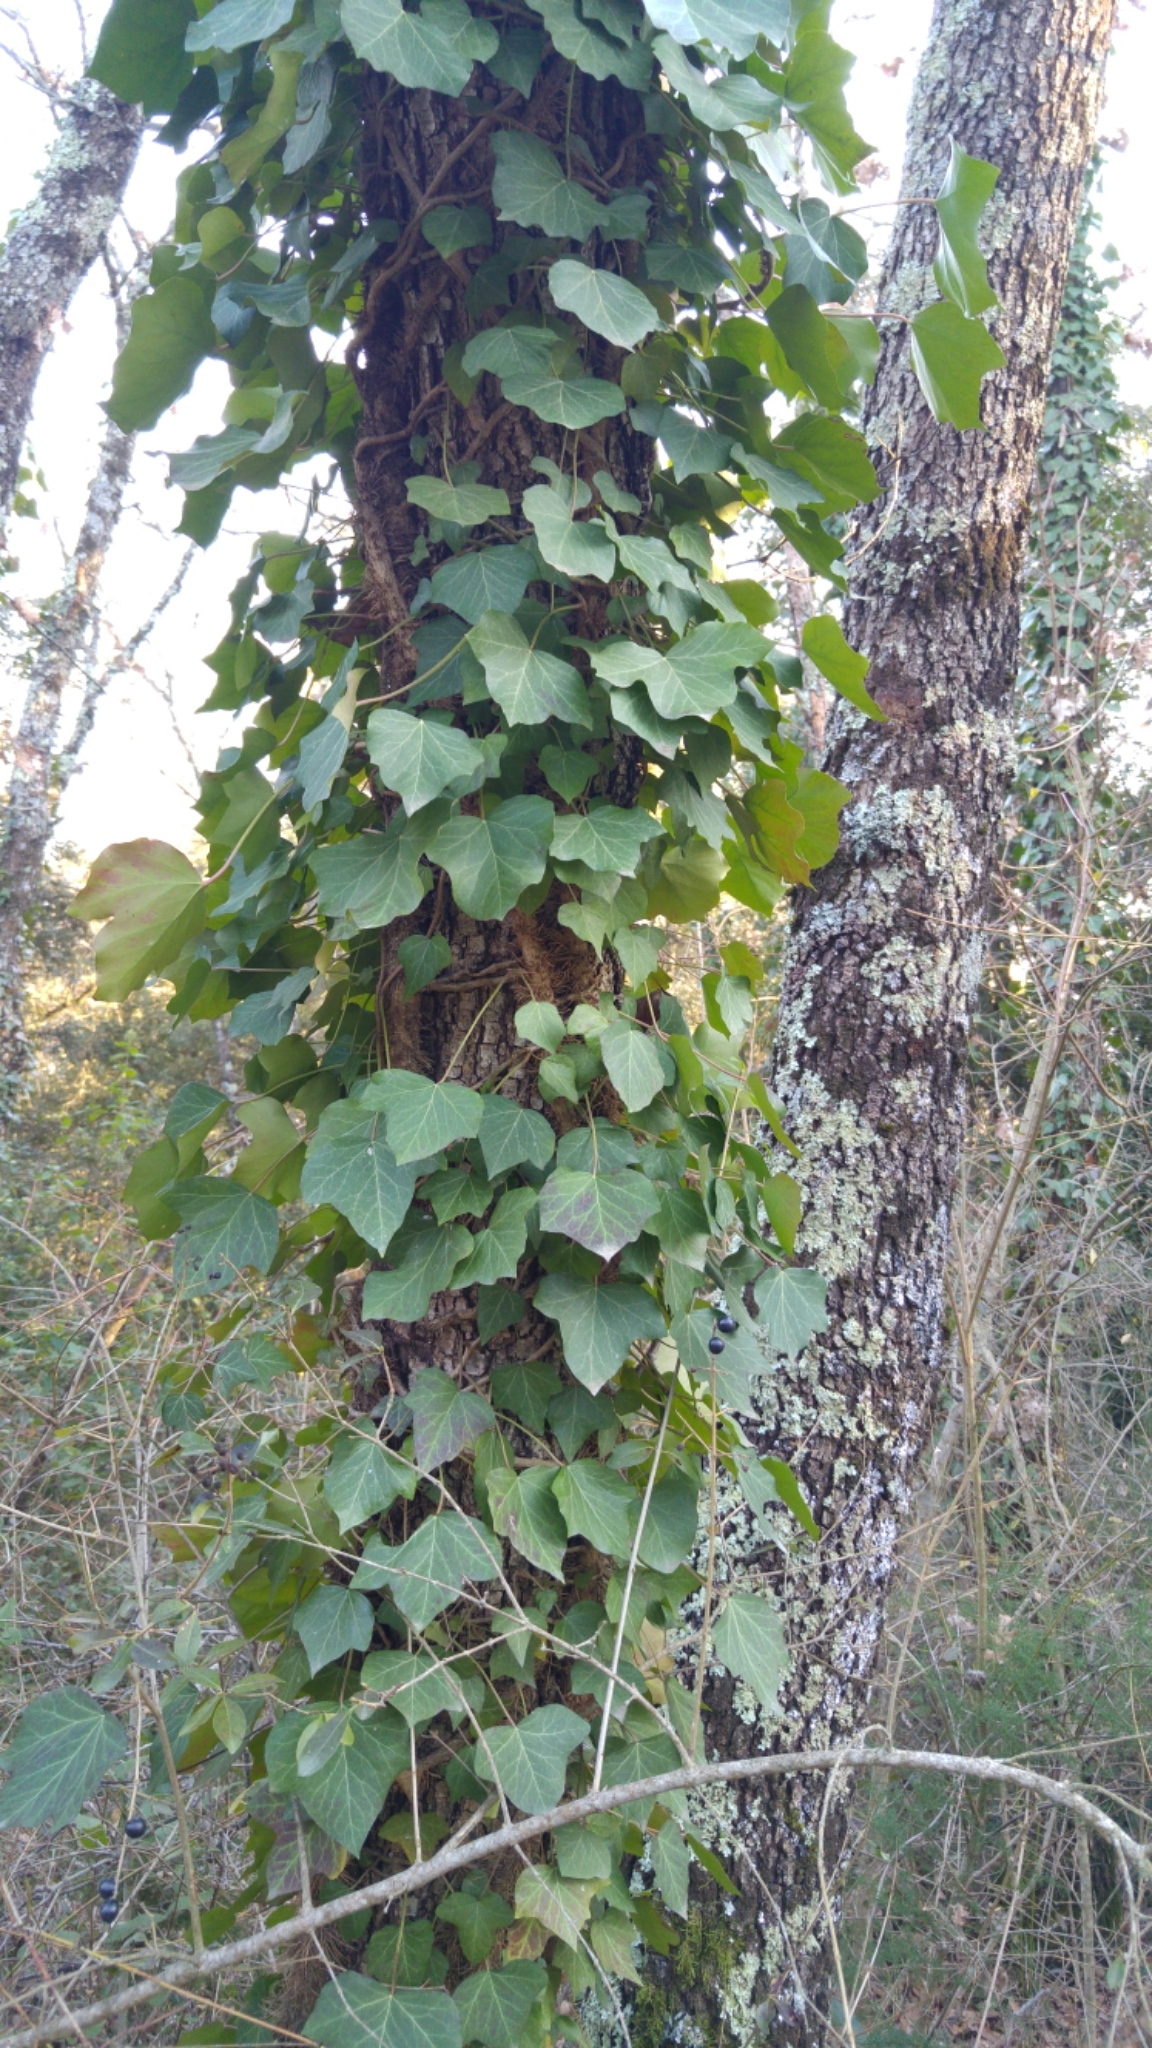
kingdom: Plantae
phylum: Tracheophyta
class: Magnoliopsida
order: Apiales
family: Araliaceae
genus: Hedera
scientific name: Hedera helix
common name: Ivy
